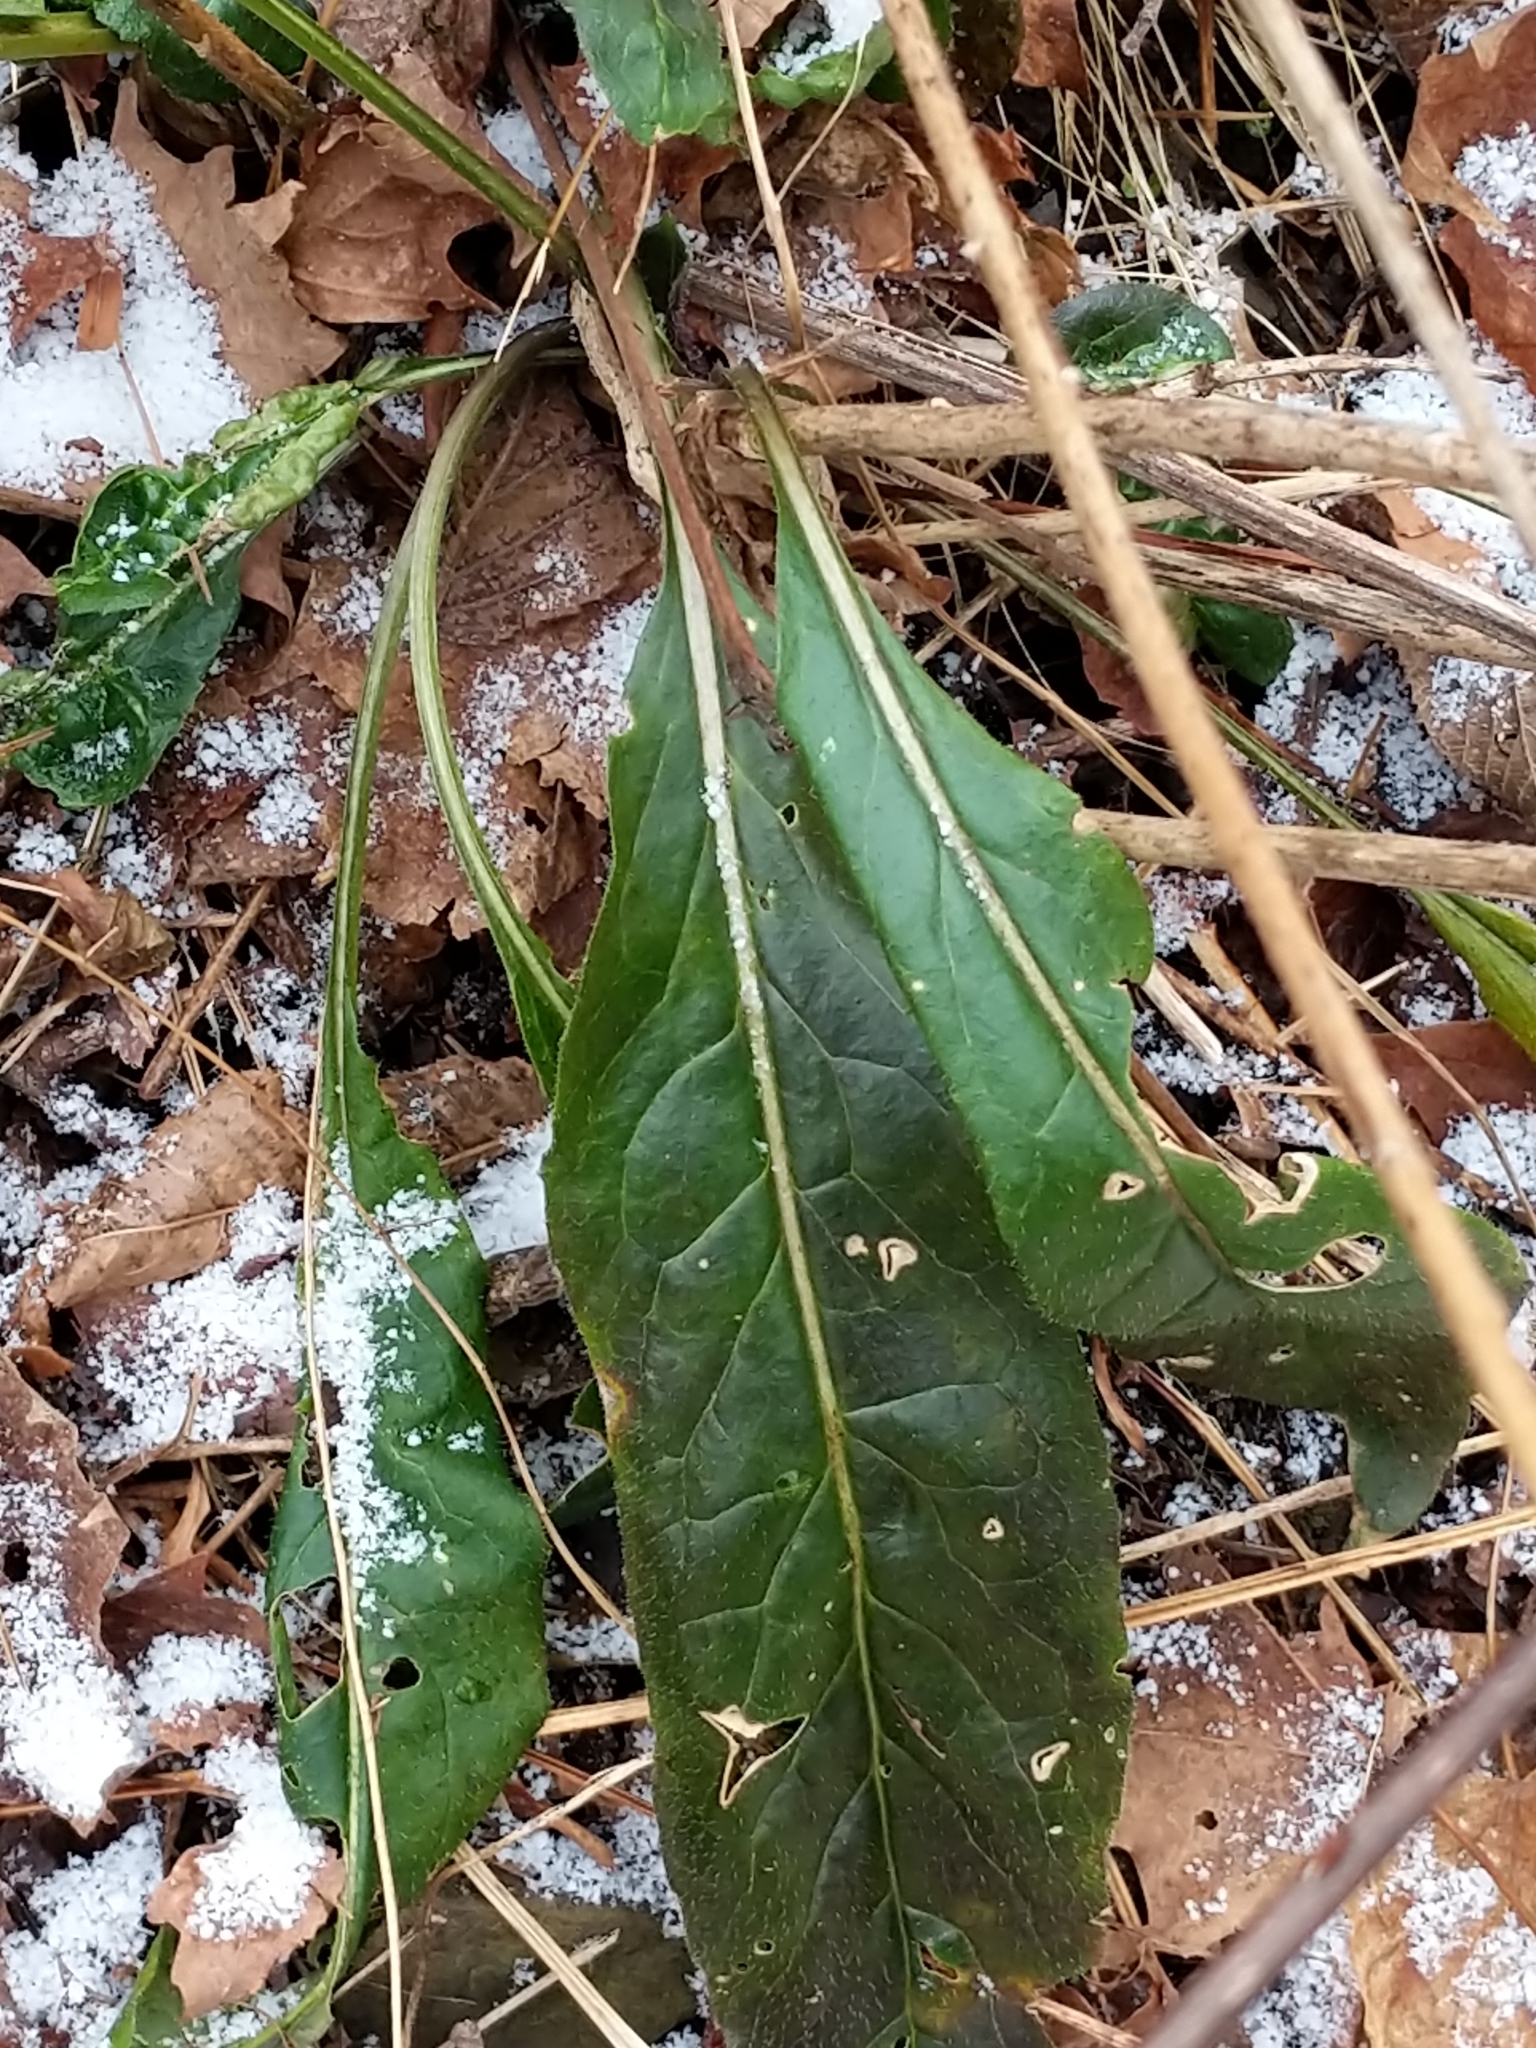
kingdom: Plantae
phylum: Tracheophyta
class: Magnoliopsida
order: Brassicales
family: Brassicaceae
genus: Hesperis
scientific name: Hesperis matronalis
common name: Dame's-violet
